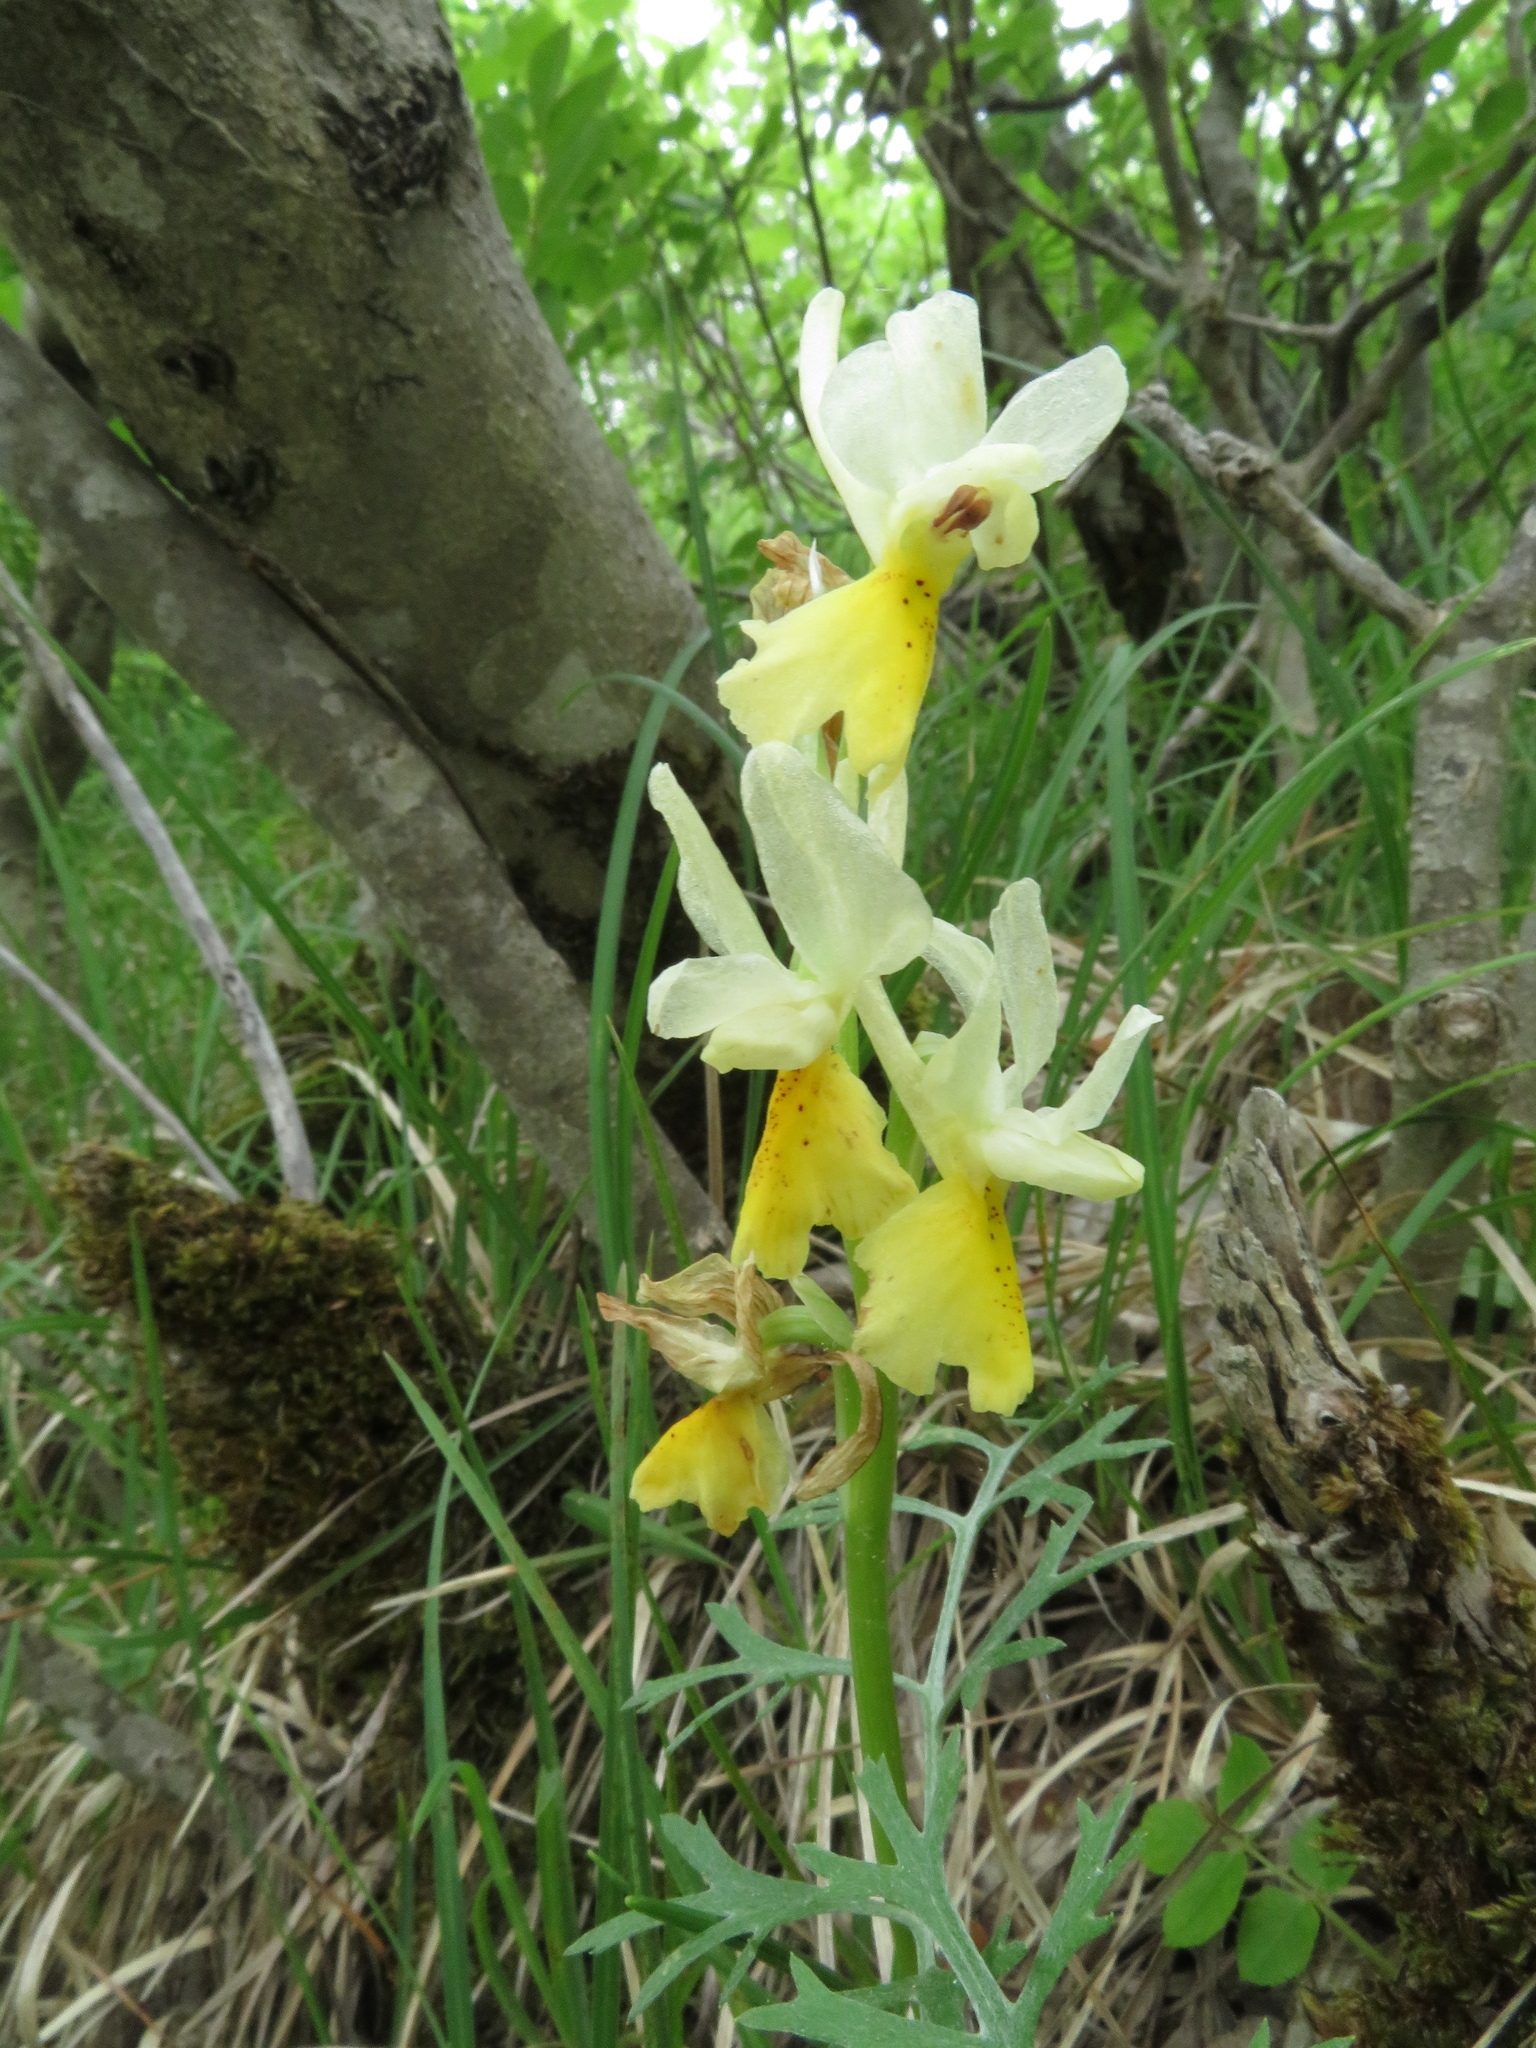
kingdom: Plantae
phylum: Tracheophyta
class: Liliopsida
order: Asparagales
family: Orchidaceae
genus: Orchis
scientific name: Orchis pauciflora
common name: Few-flowered orchid
